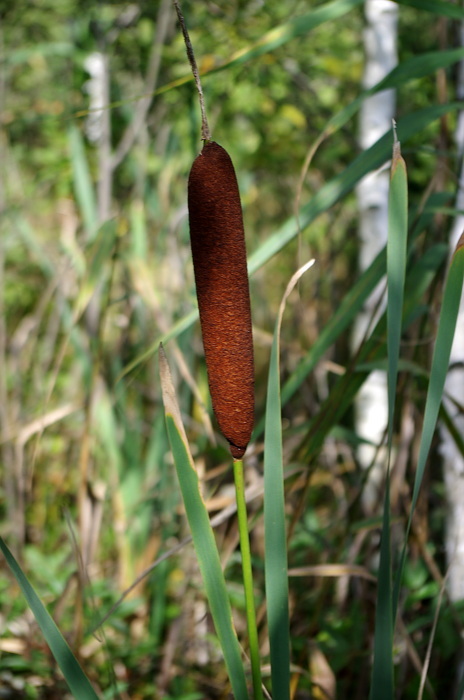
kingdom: Plantae
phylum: Tracheophyta
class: Liliopsida
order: Poales
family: Typhaceae
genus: Typha
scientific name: Typha latifolia
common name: Broadleaf cattail
